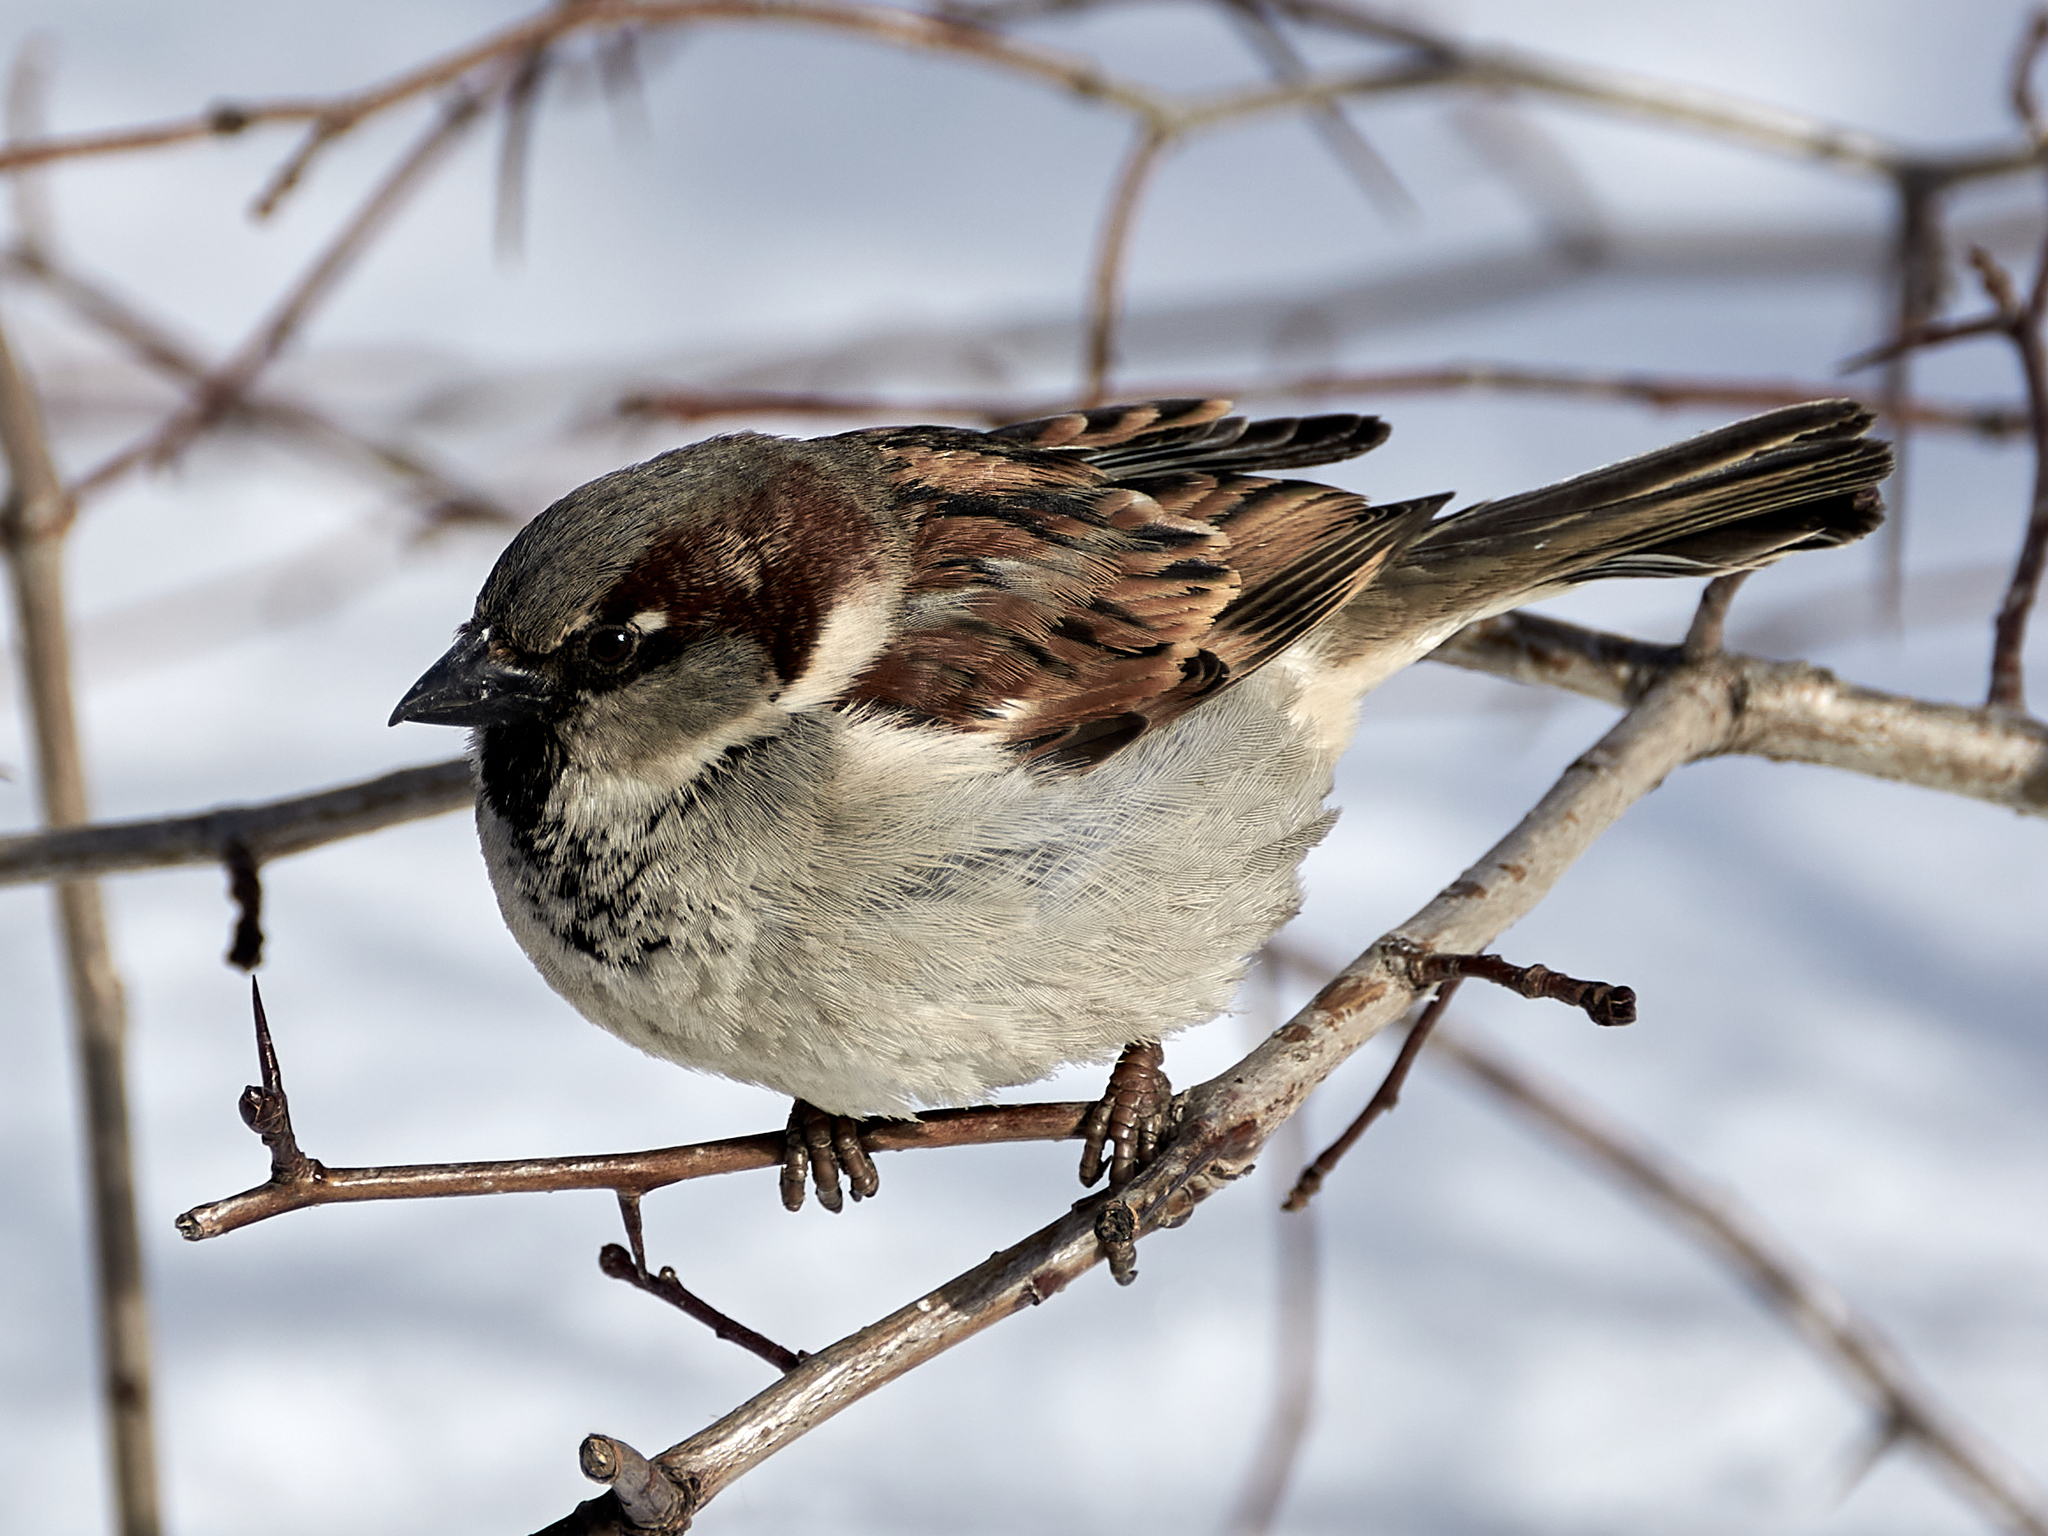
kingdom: Animalia
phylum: Chordata
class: Aves
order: Passeriformes
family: Passeridae
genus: Passer
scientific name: Passer domesticus
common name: House sparrow
